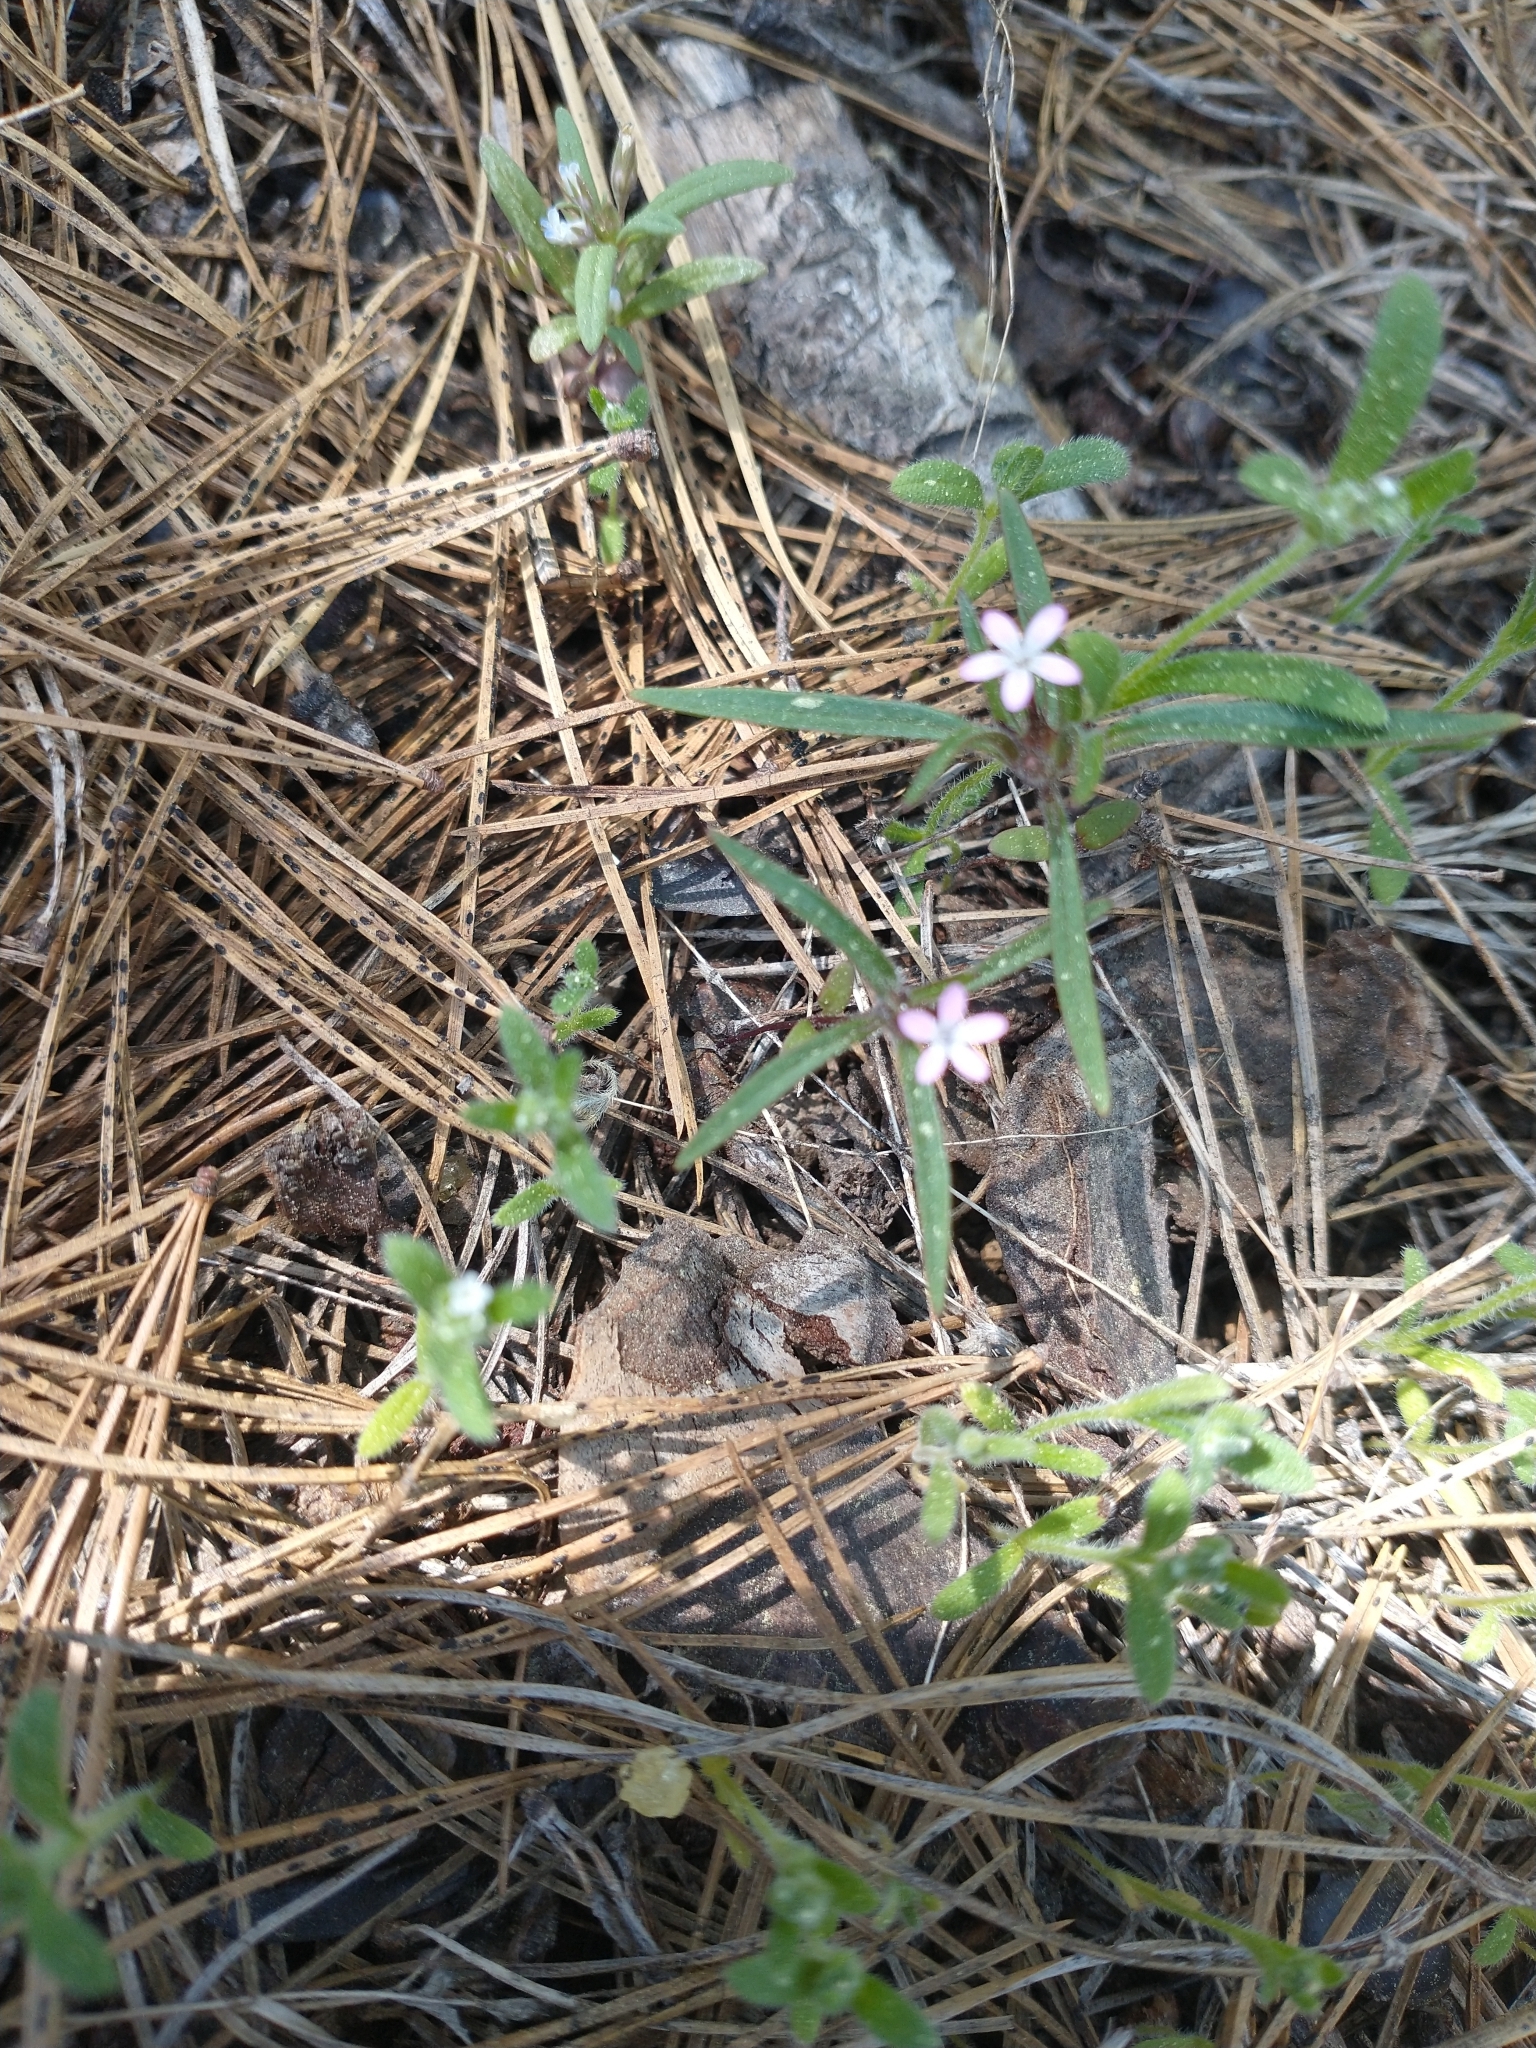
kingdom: Plantae
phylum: Tracheophyta
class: Magnoliopsida
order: Ericales
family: Polemoniaceae
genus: Collomia
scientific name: Collomia tinctoria
